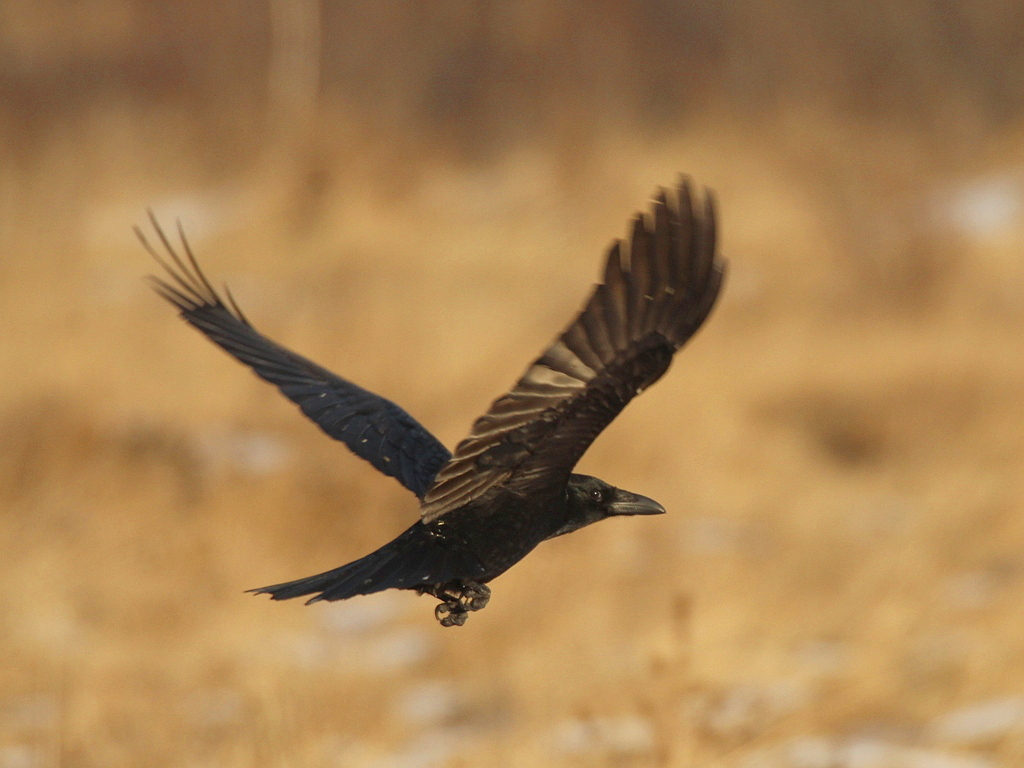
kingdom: Animalia
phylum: Chordata
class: Aves
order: Passeriformes
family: Corvidae
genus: Corvus
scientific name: Corvus corone
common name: Carrion crow
